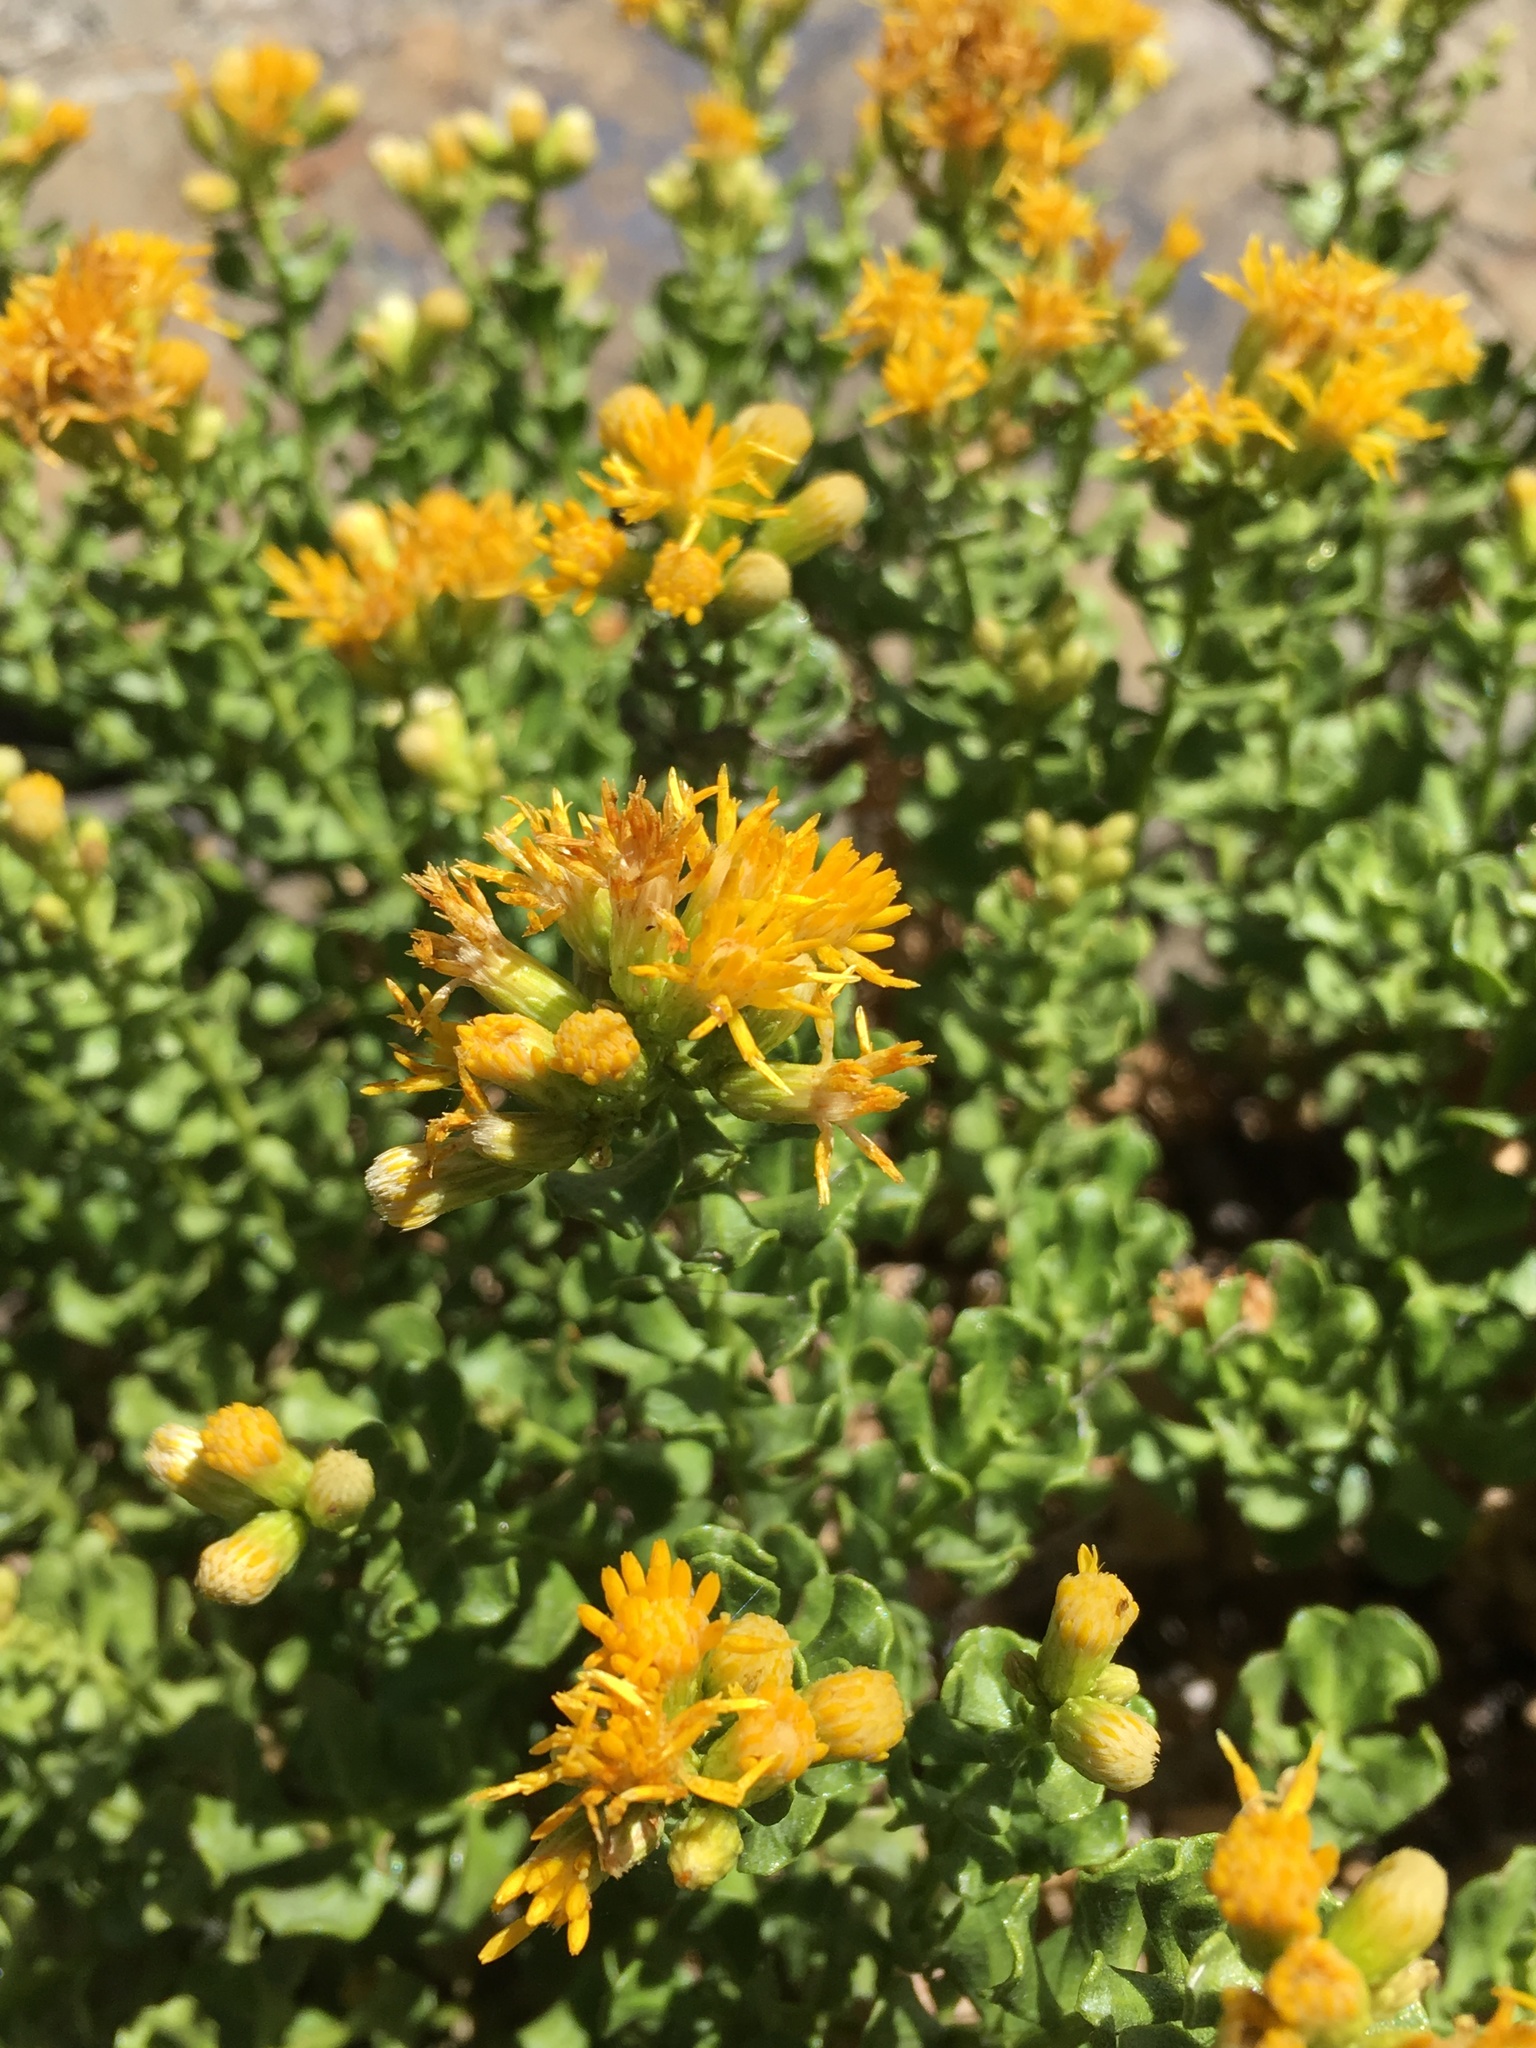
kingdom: Plantae
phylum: Tracheophyta
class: Magnoliopsida
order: Asterales
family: Asteraceae
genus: Ericameria
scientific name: Ericameria cuneata
